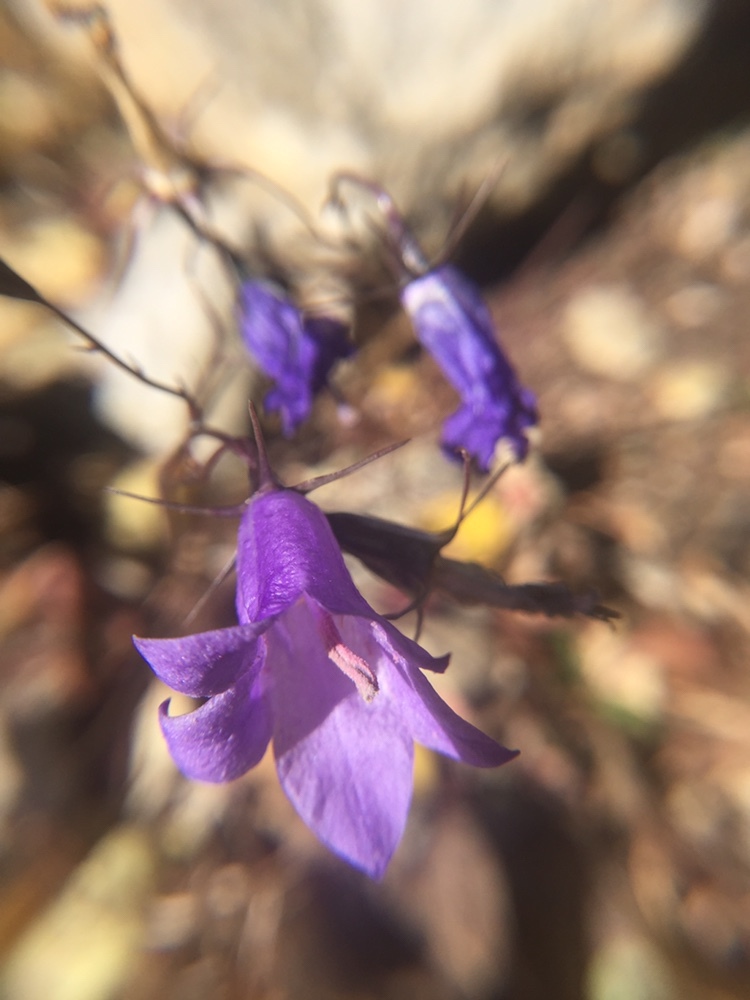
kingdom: Plantae
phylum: Tracheophyta
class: Magnoliopsida
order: Asterales
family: Campanulaceae
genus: Campanula
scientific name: Campanula petiolata
